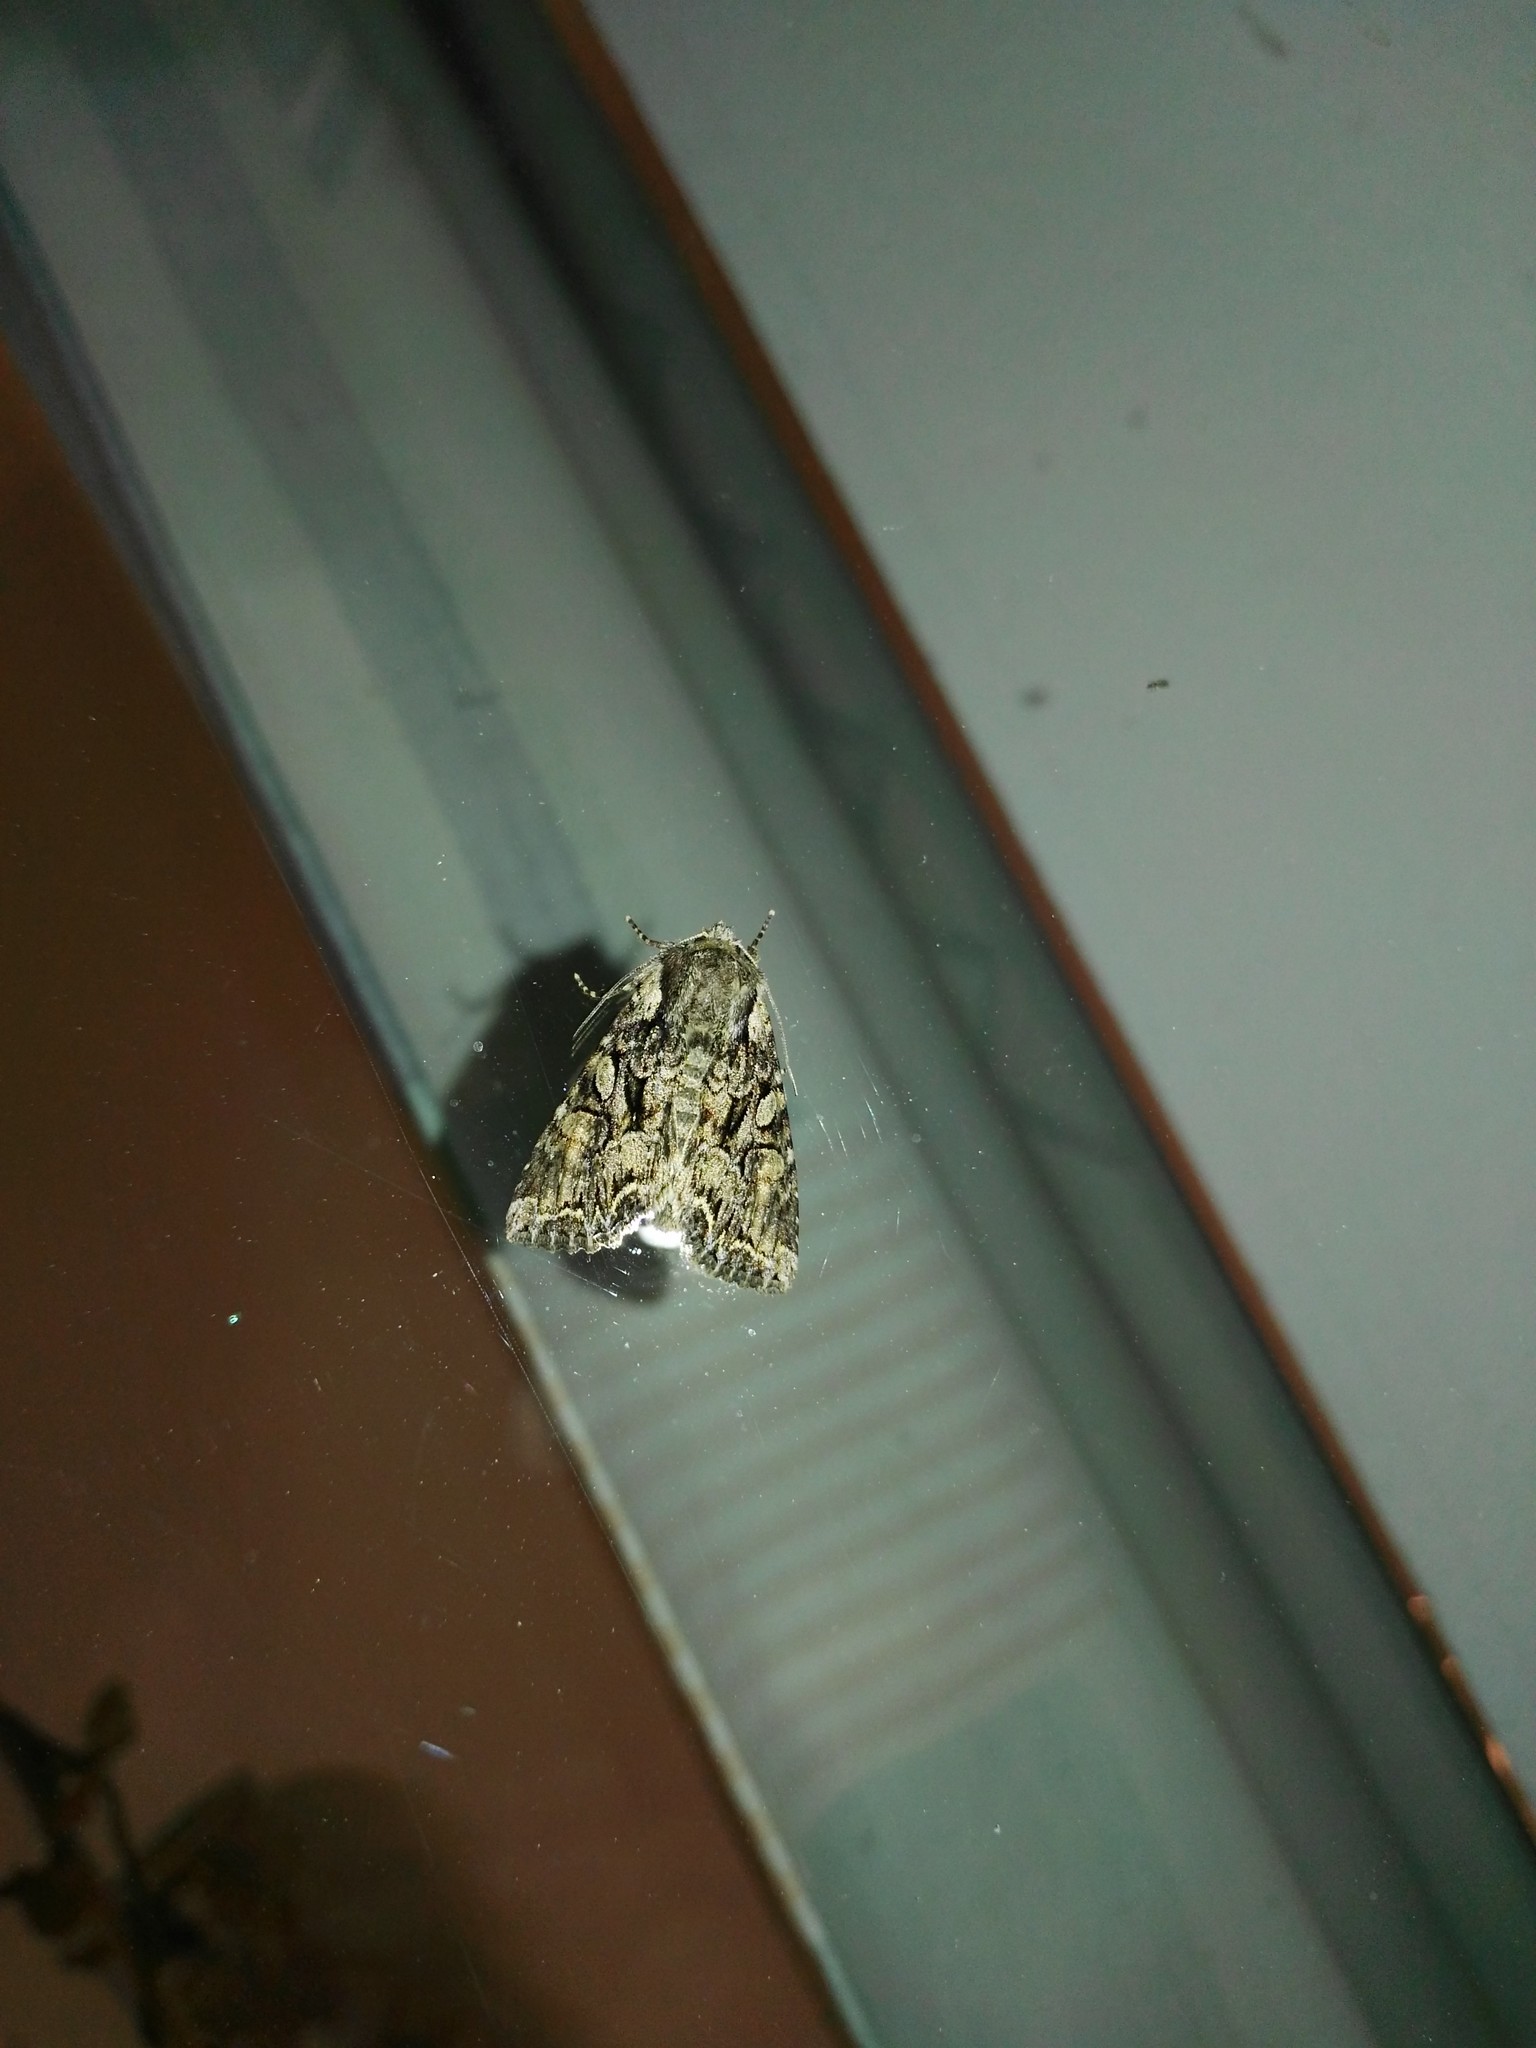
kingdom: Animalia
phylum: Arthropoda
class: Insecta
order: Lepidoptera
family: Noctuidae
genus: Lacanobia
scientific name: Lacanobia thalassina
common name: Pale-shouldered brocade
